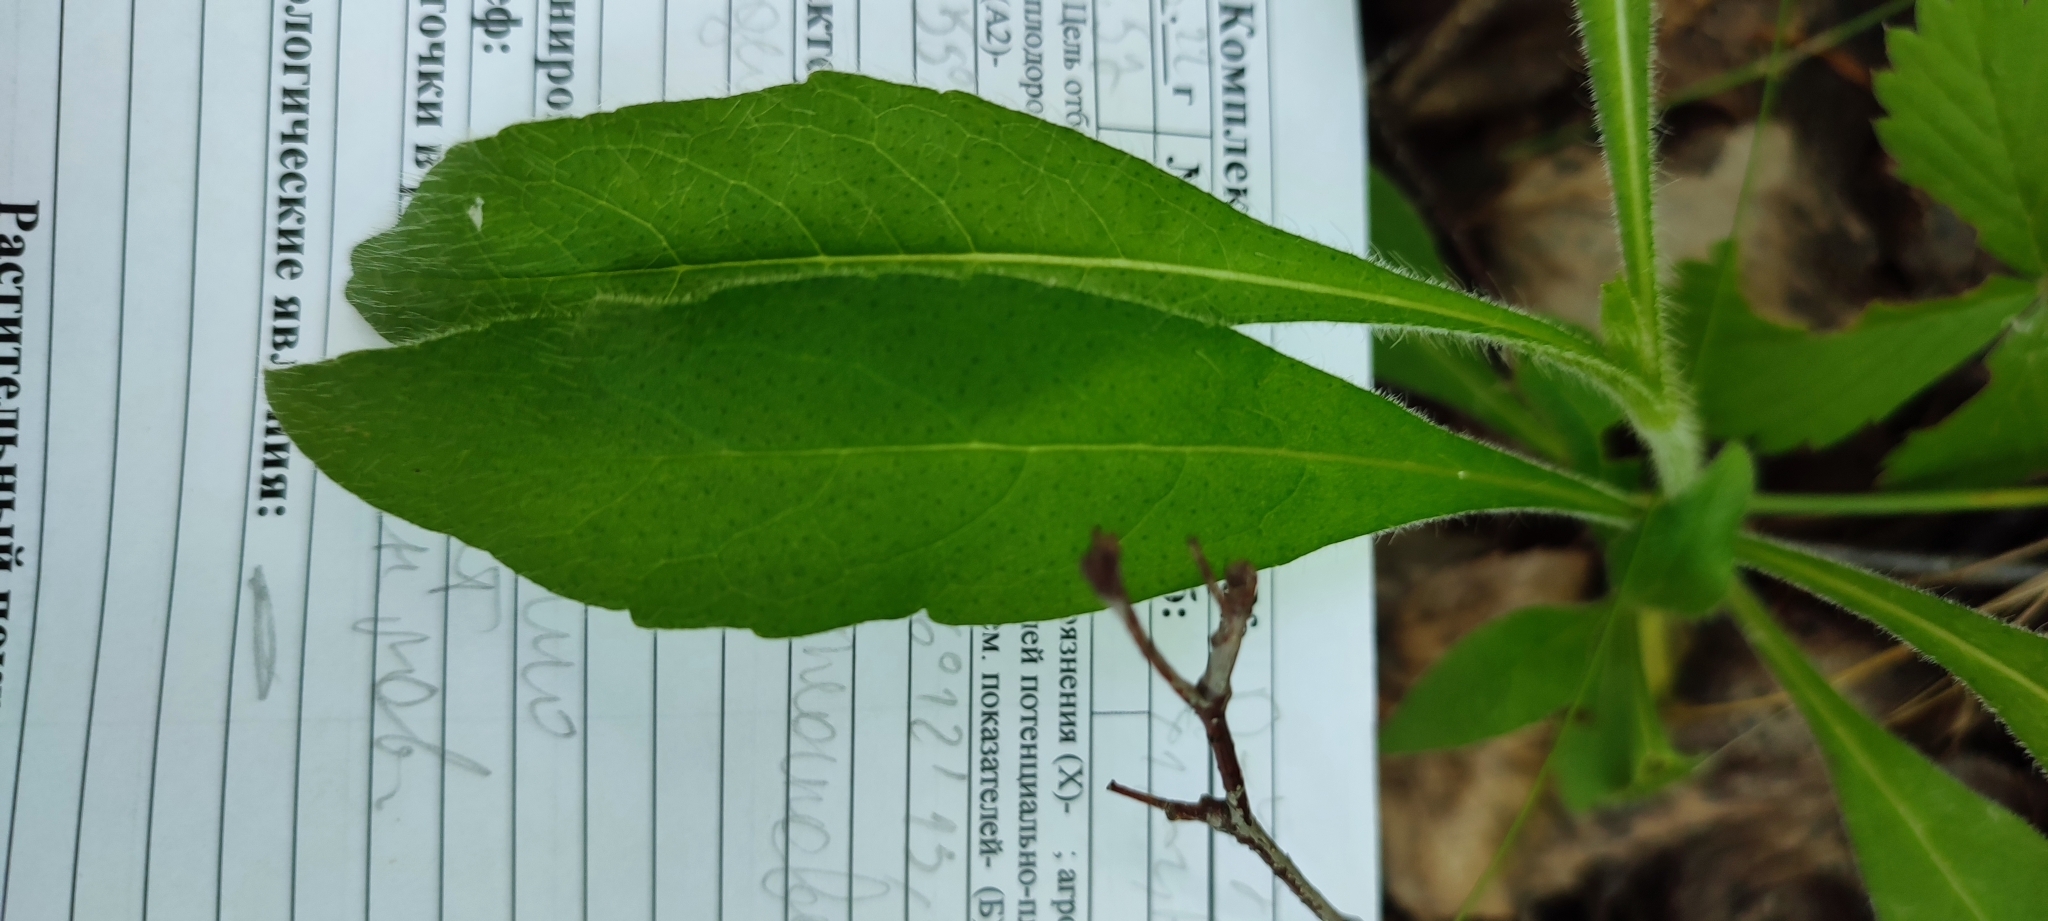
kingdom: Plantae
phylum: Tracheophyta
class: Magnoliopsida
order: Asterales
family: Asteraceae
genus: Solidago
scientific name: Solidago virgaurea
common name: Goldenrod
